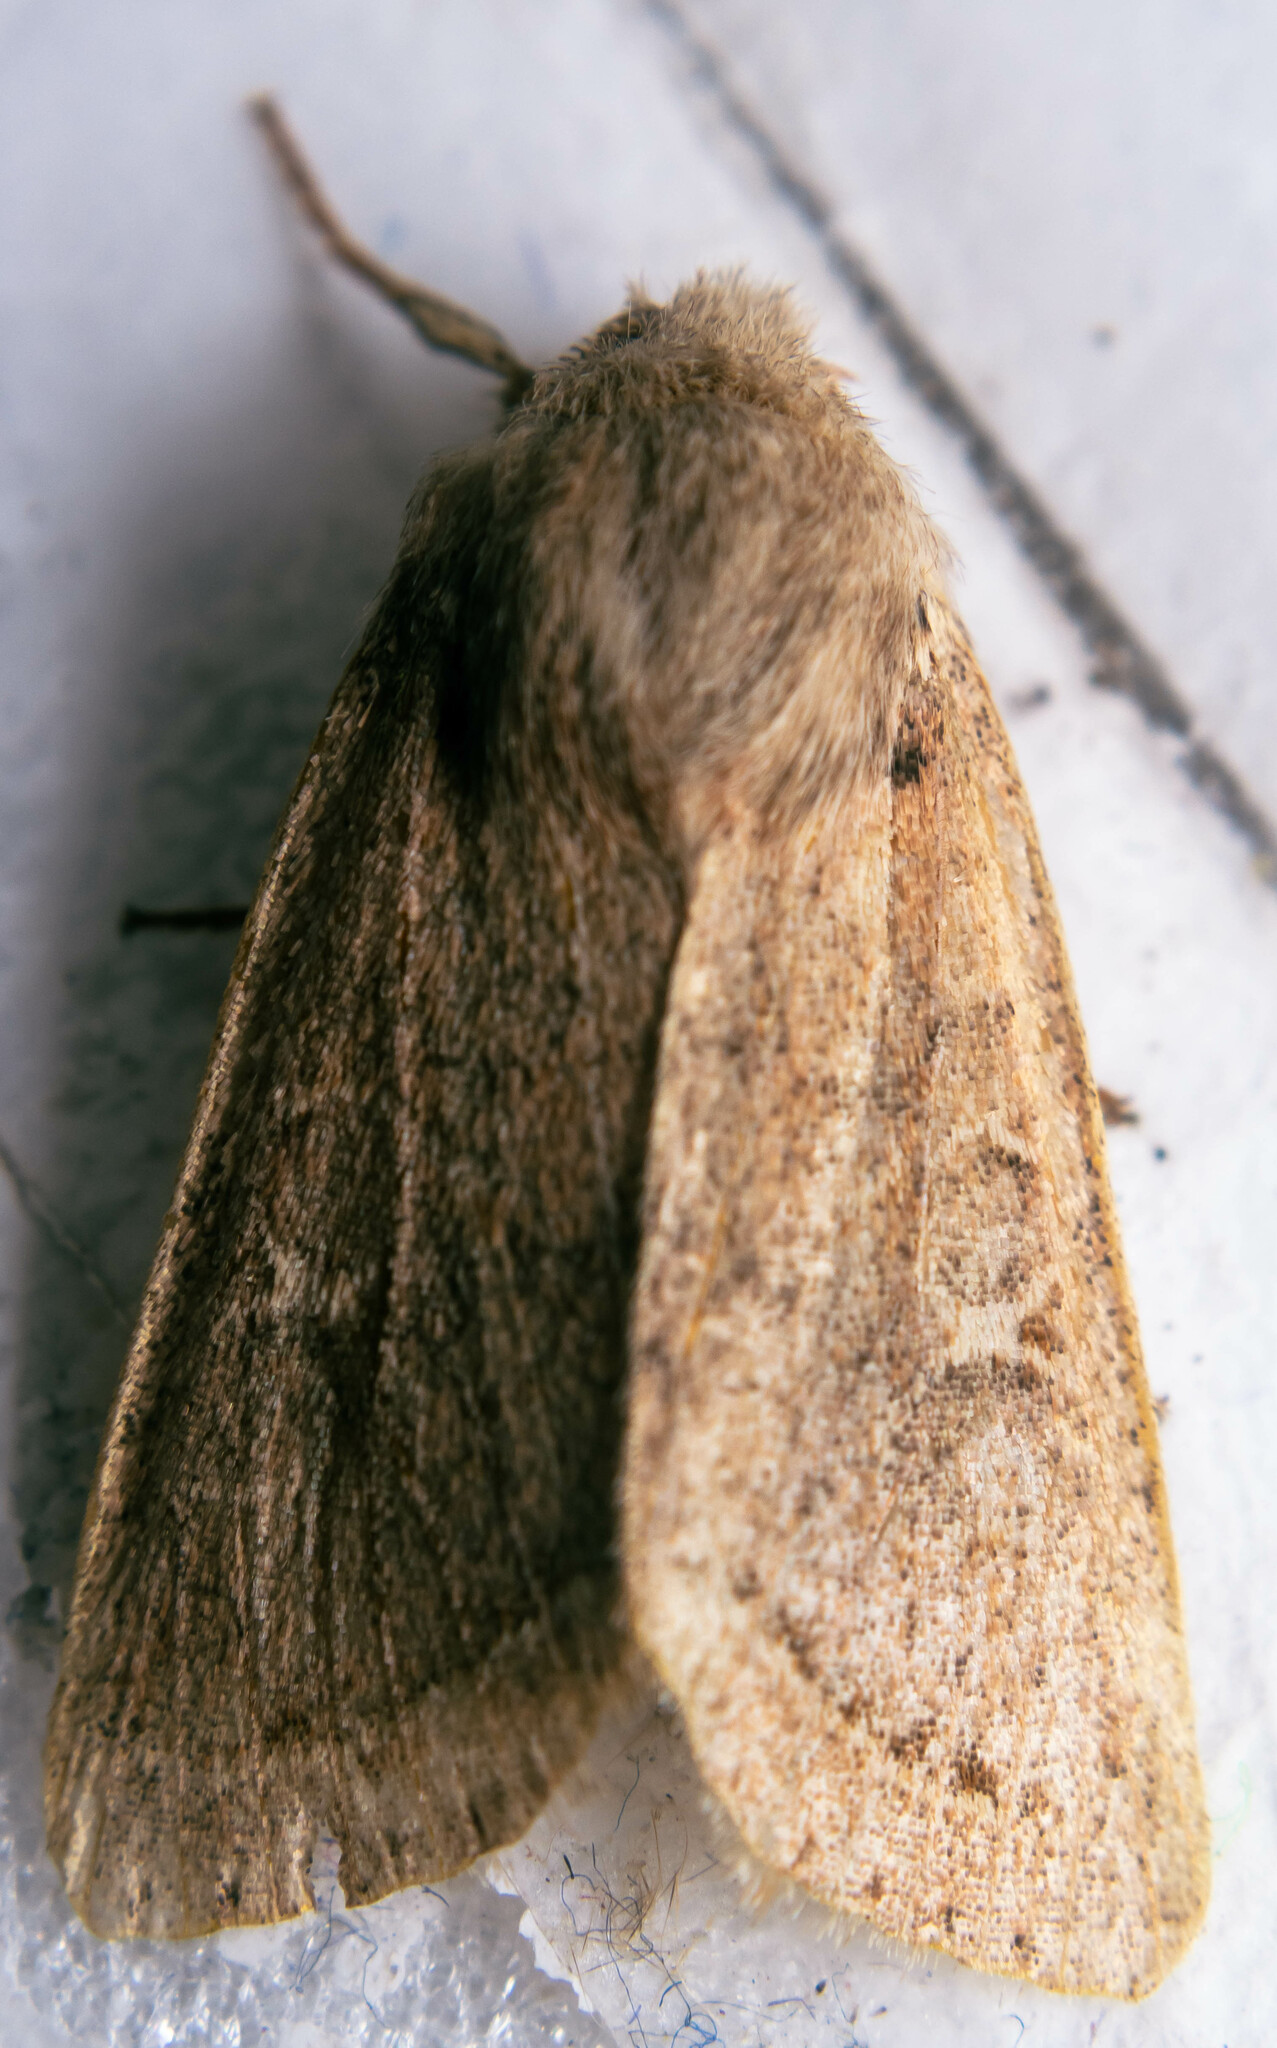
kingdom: Animalia
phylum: Arthropoda
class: Insecta
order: Lepidoptera
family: Noctuidae
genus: Orthosia
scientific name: Orthosia cerasi
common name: Common quaker
